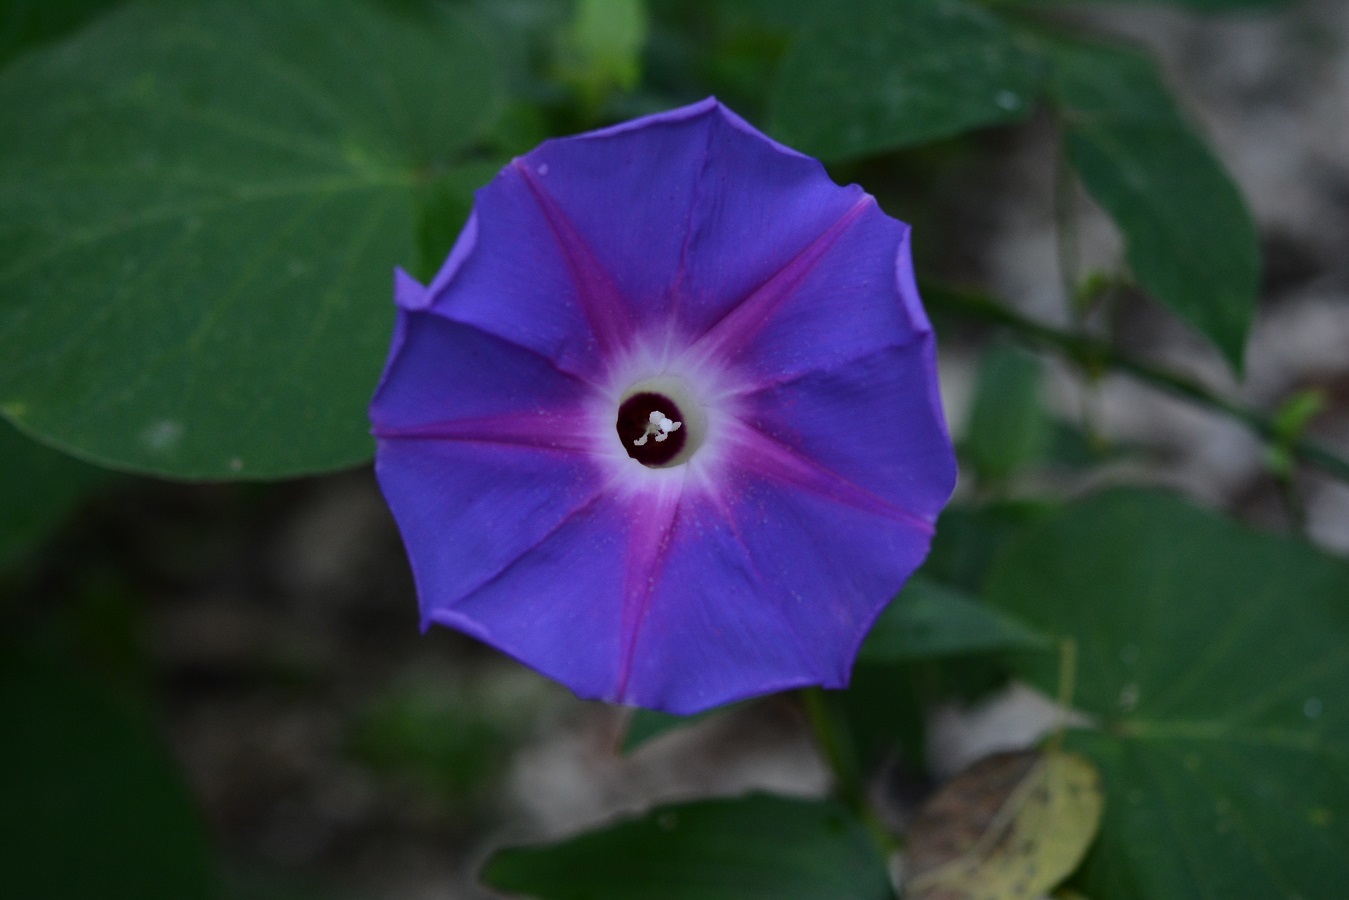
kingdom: Plantae
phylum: Tracheophyta
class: Magnoliopsida
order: Solanales
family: Convolvulaceae
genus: Ipomoea
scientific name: Ipomoea villifera
